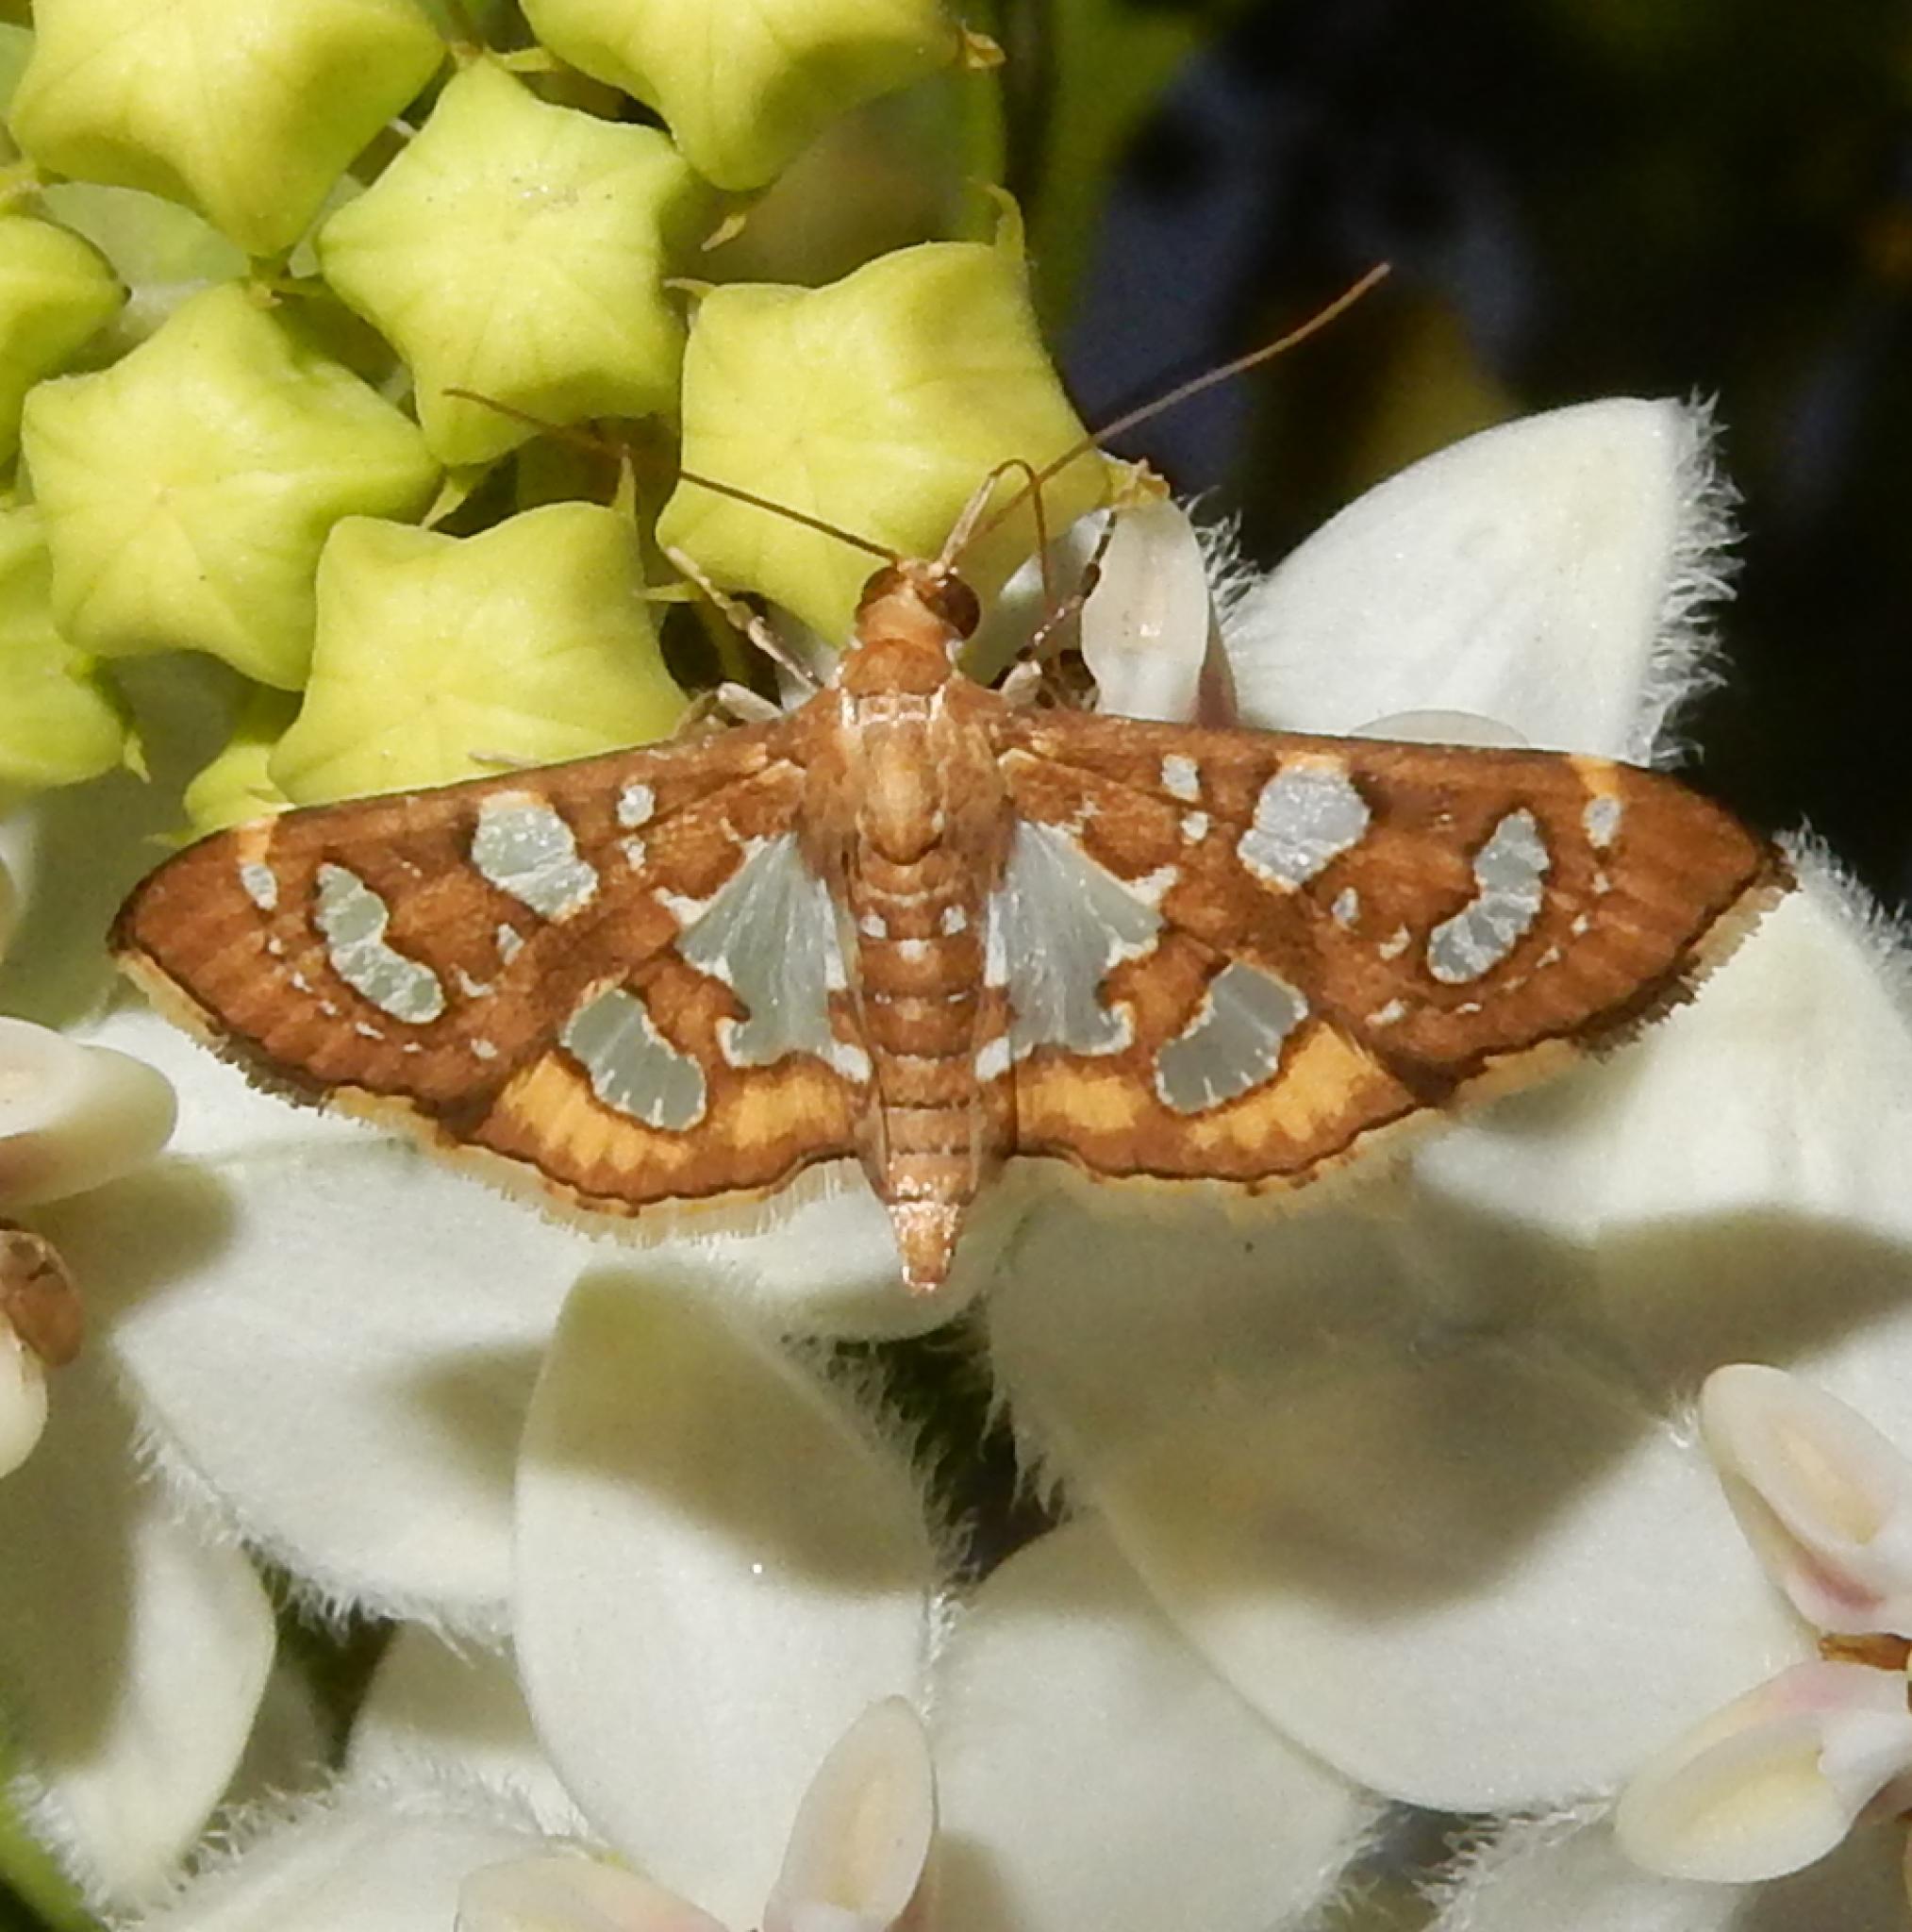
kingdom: Animalia
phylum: Arthropoda
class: Insecta
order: Lepidoptera
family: Crambidae
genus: Nausinoe
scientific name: Nausinoe quadrinalis
